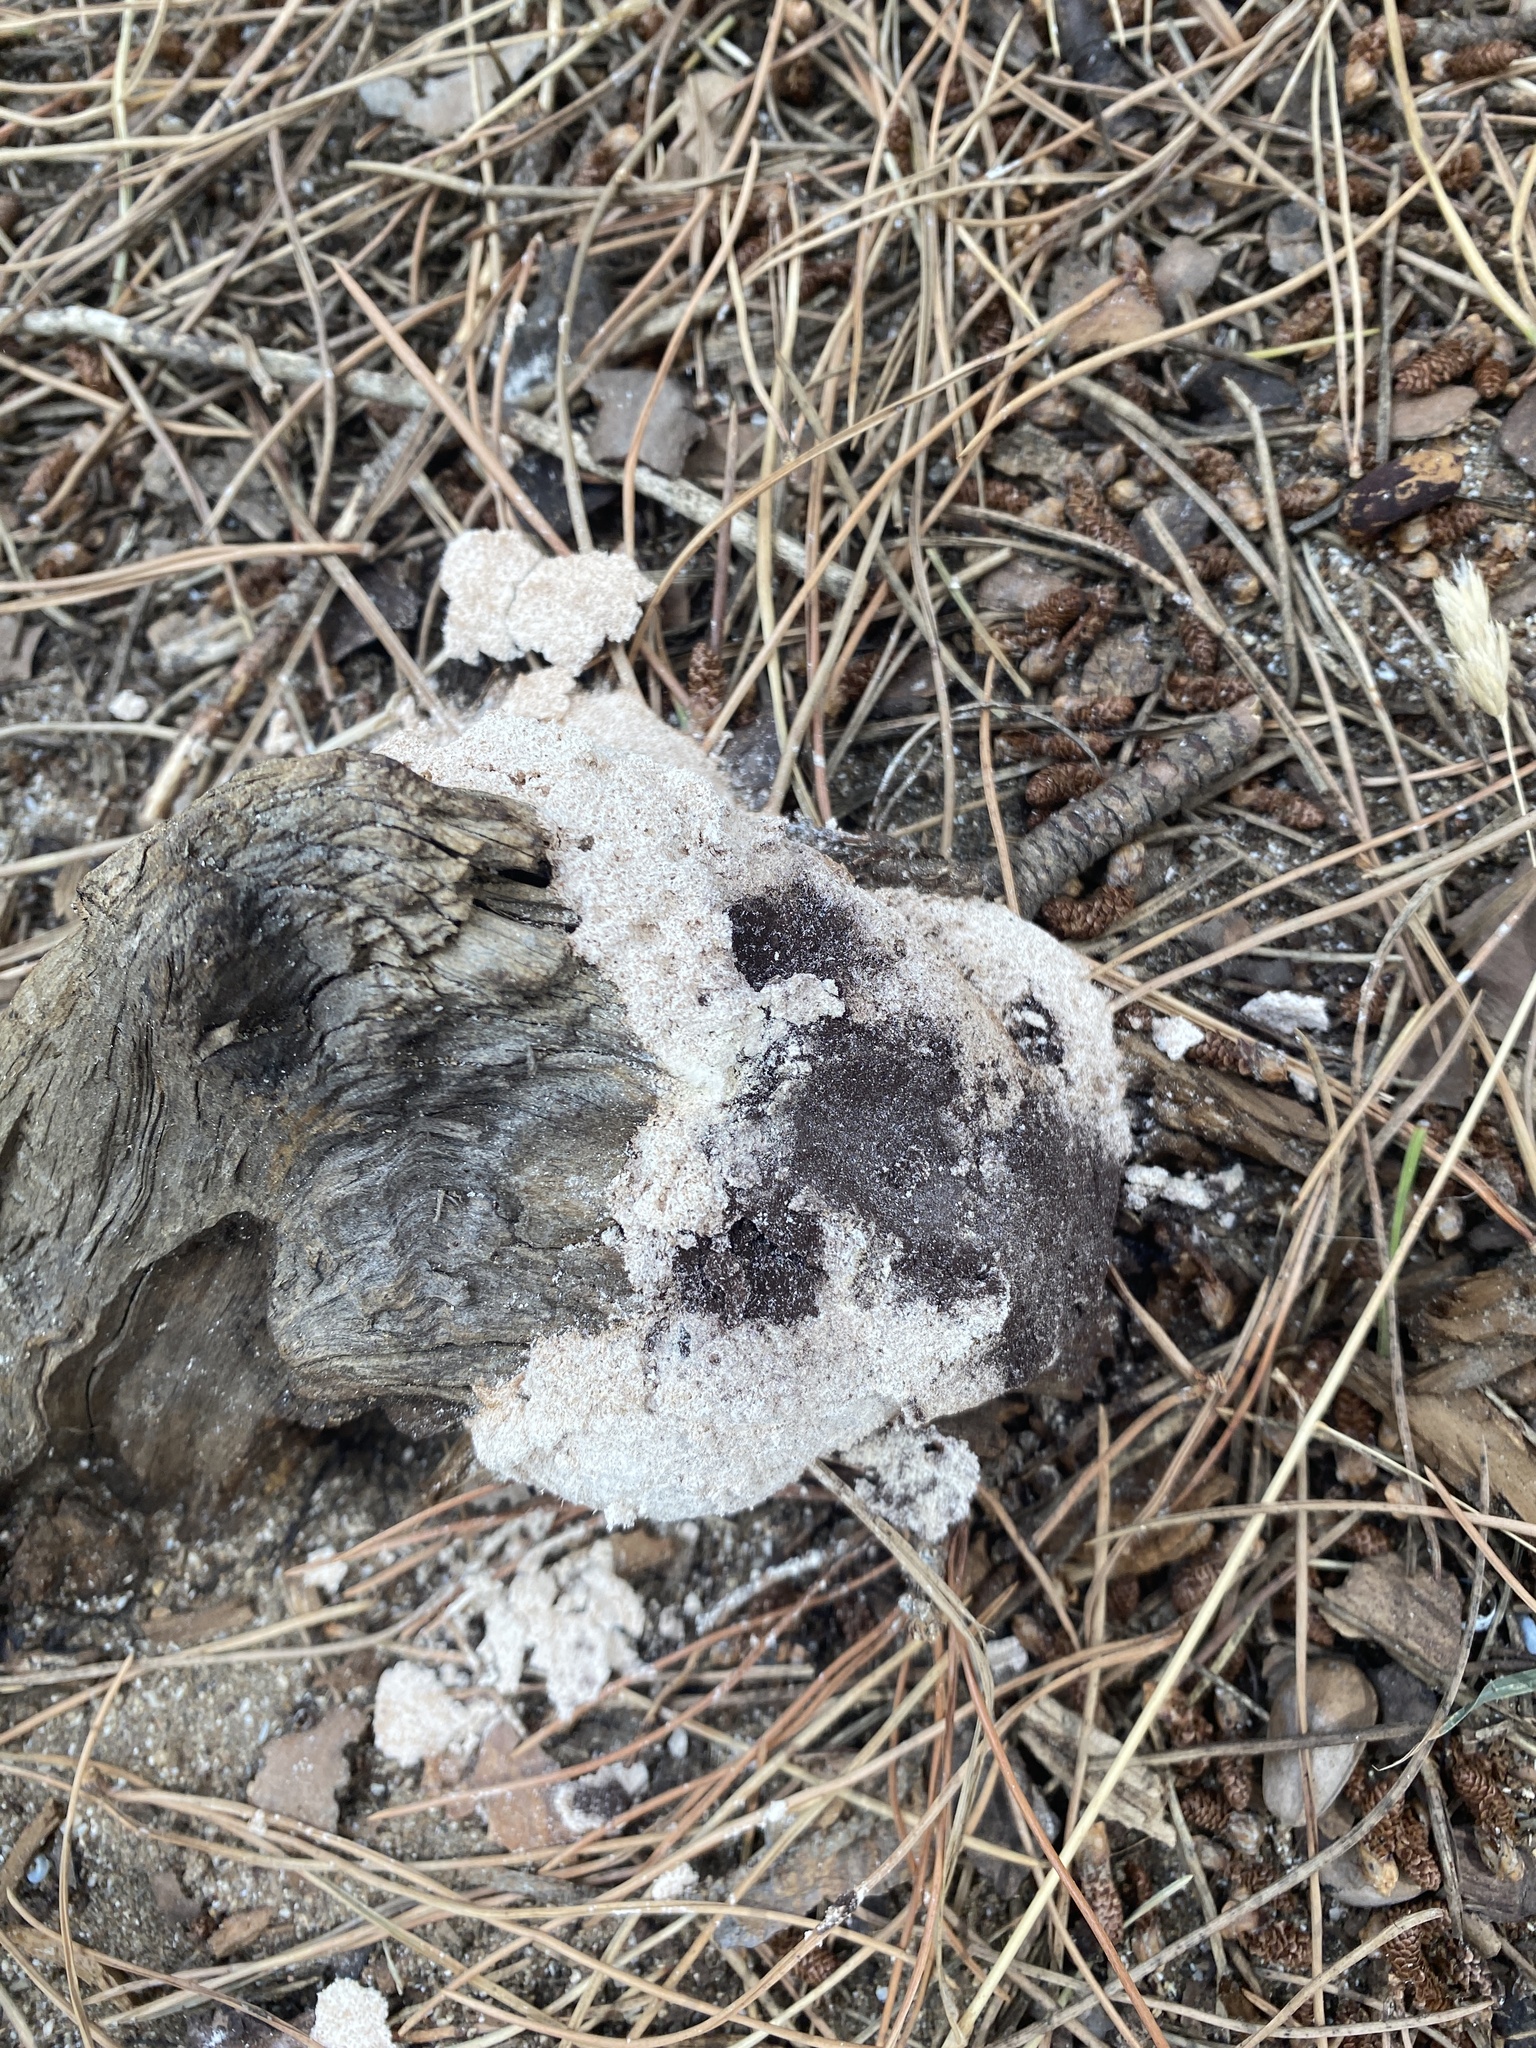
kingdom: Protozoa
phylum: Mycetozoa
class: Myxomycetes
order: Physarales
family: Physaraceae
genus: Fuligo
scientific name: Fuligo septica
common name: Dog vomit slime mold
